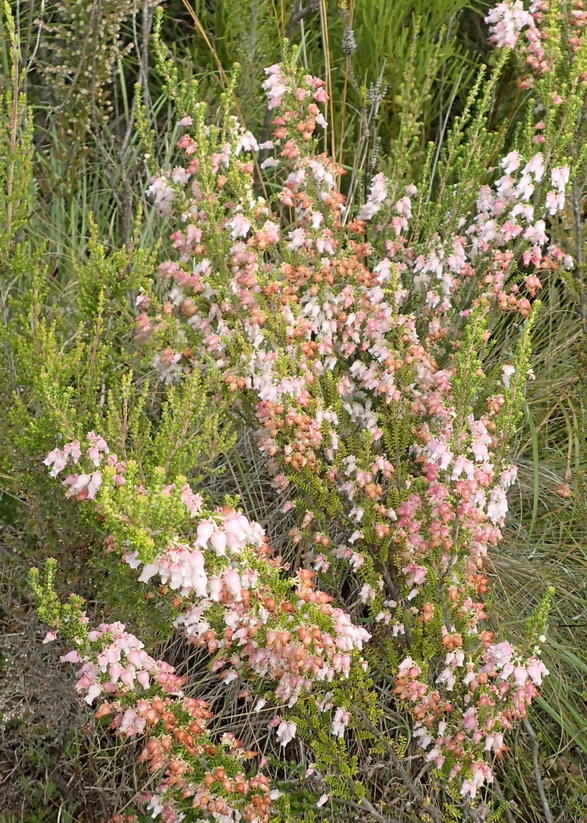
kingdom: Plantae
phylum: Tracheophyta
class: Magnoliopsida
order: Ericales
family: Ericaceae
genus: Erica
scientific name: Erica glomiflora
